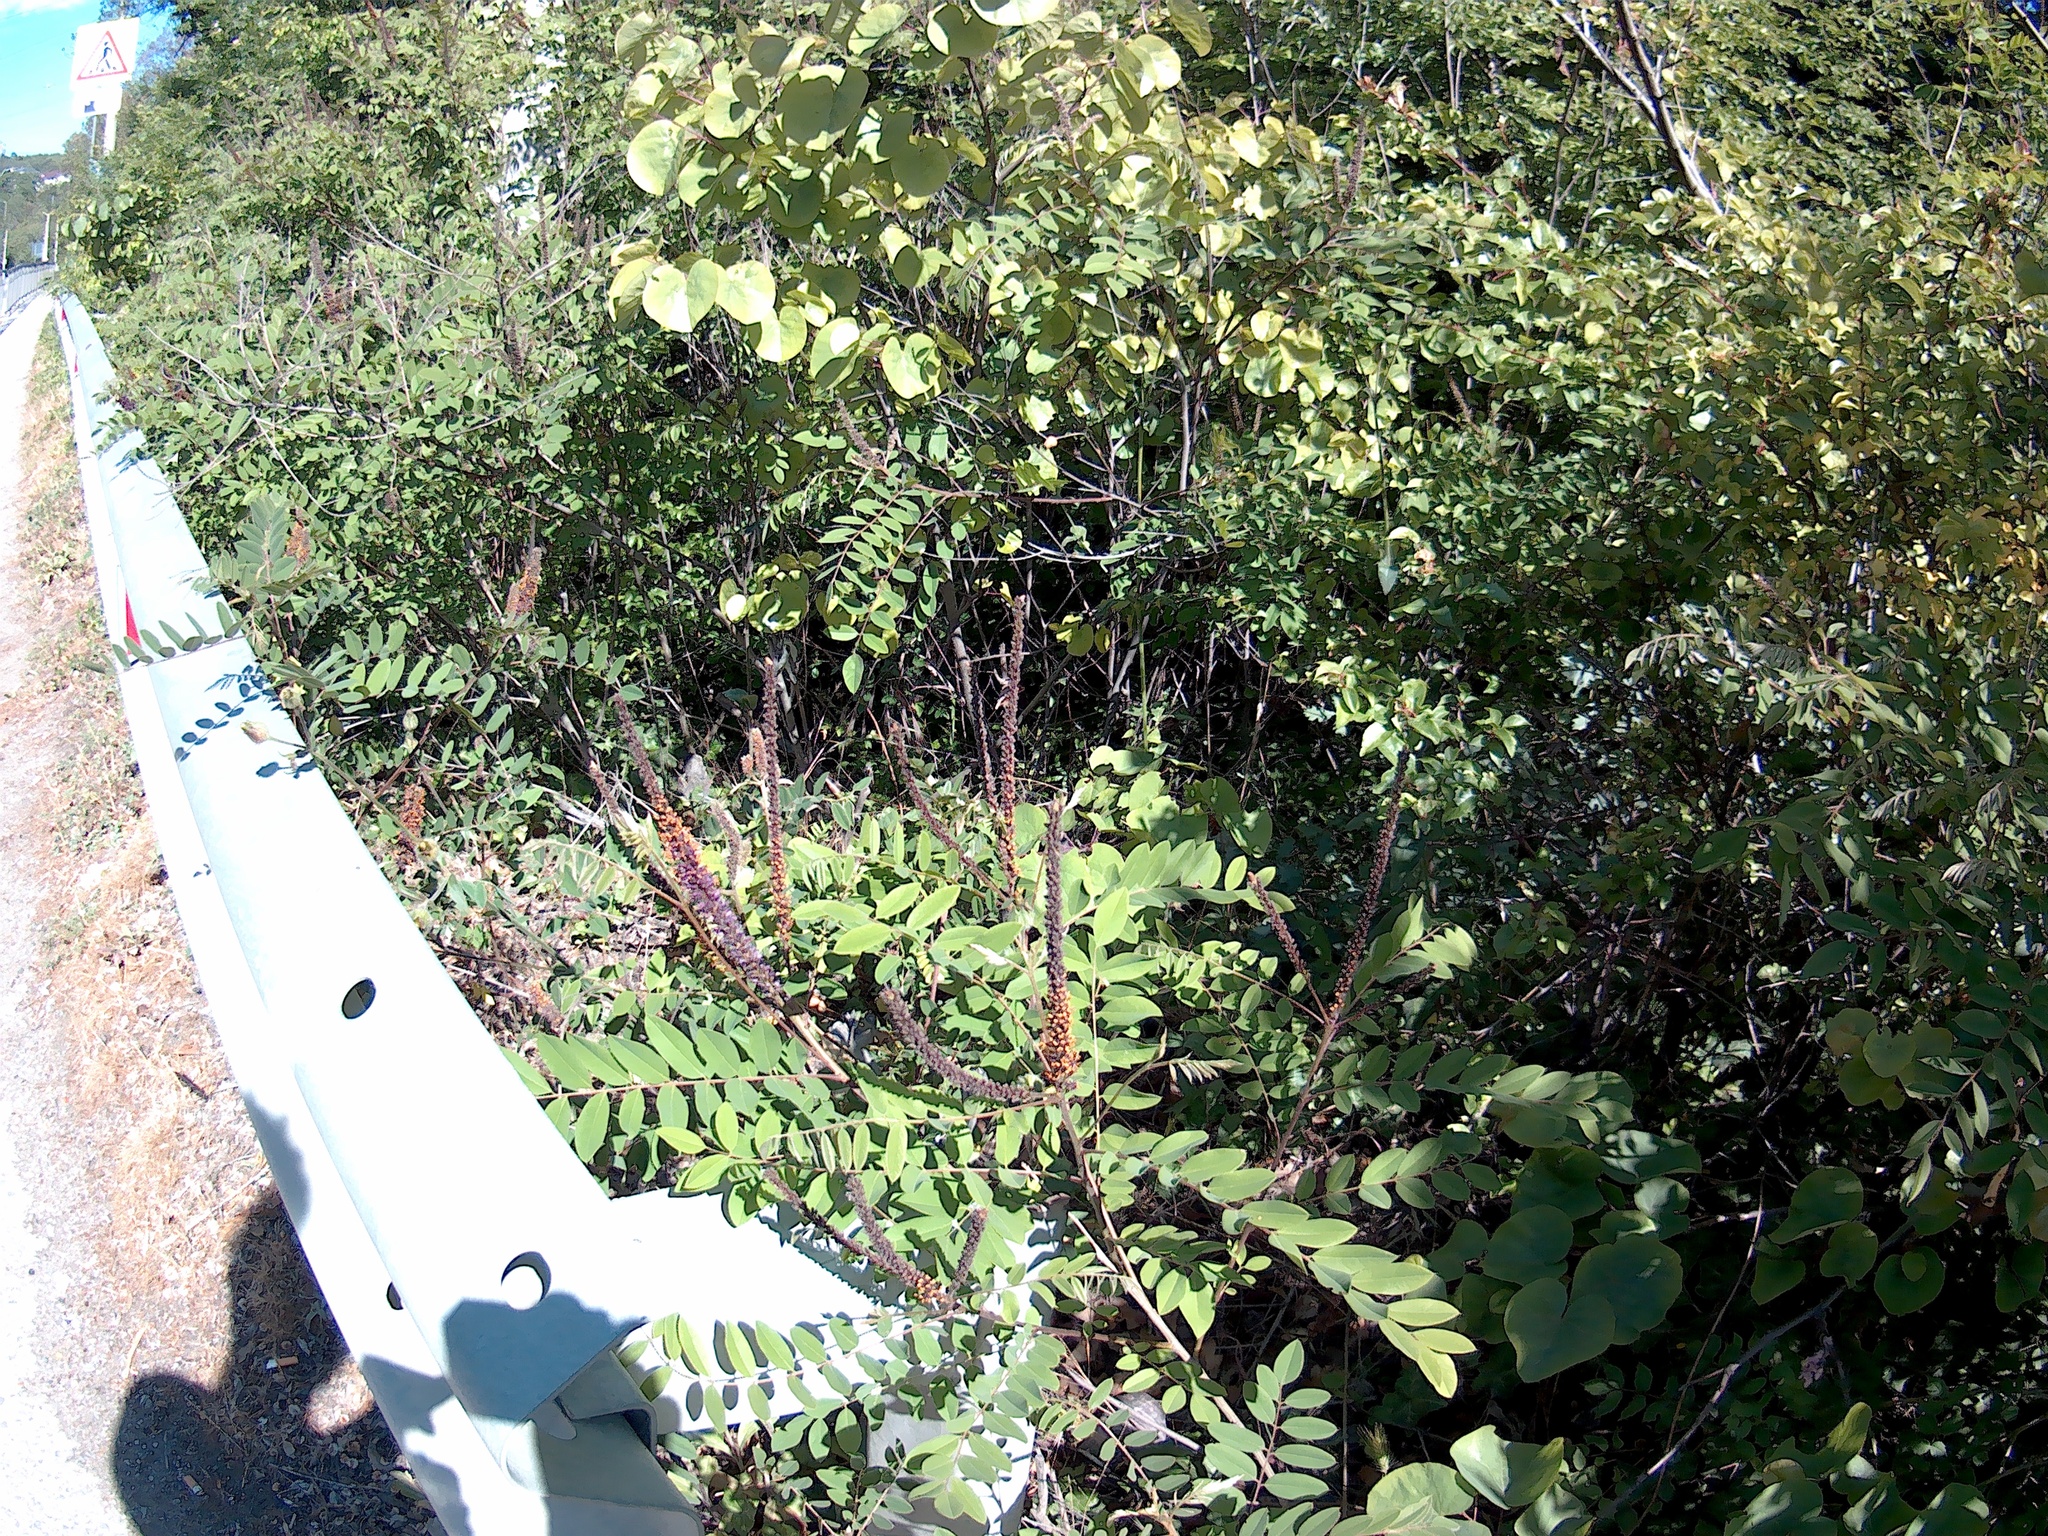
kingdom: Plantae
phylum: Tracheophyta
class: Magnoliopsida
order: Fabales
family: Fabaceae
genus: Amorpha
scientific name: Amorpha fruticosa
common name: False indigo
